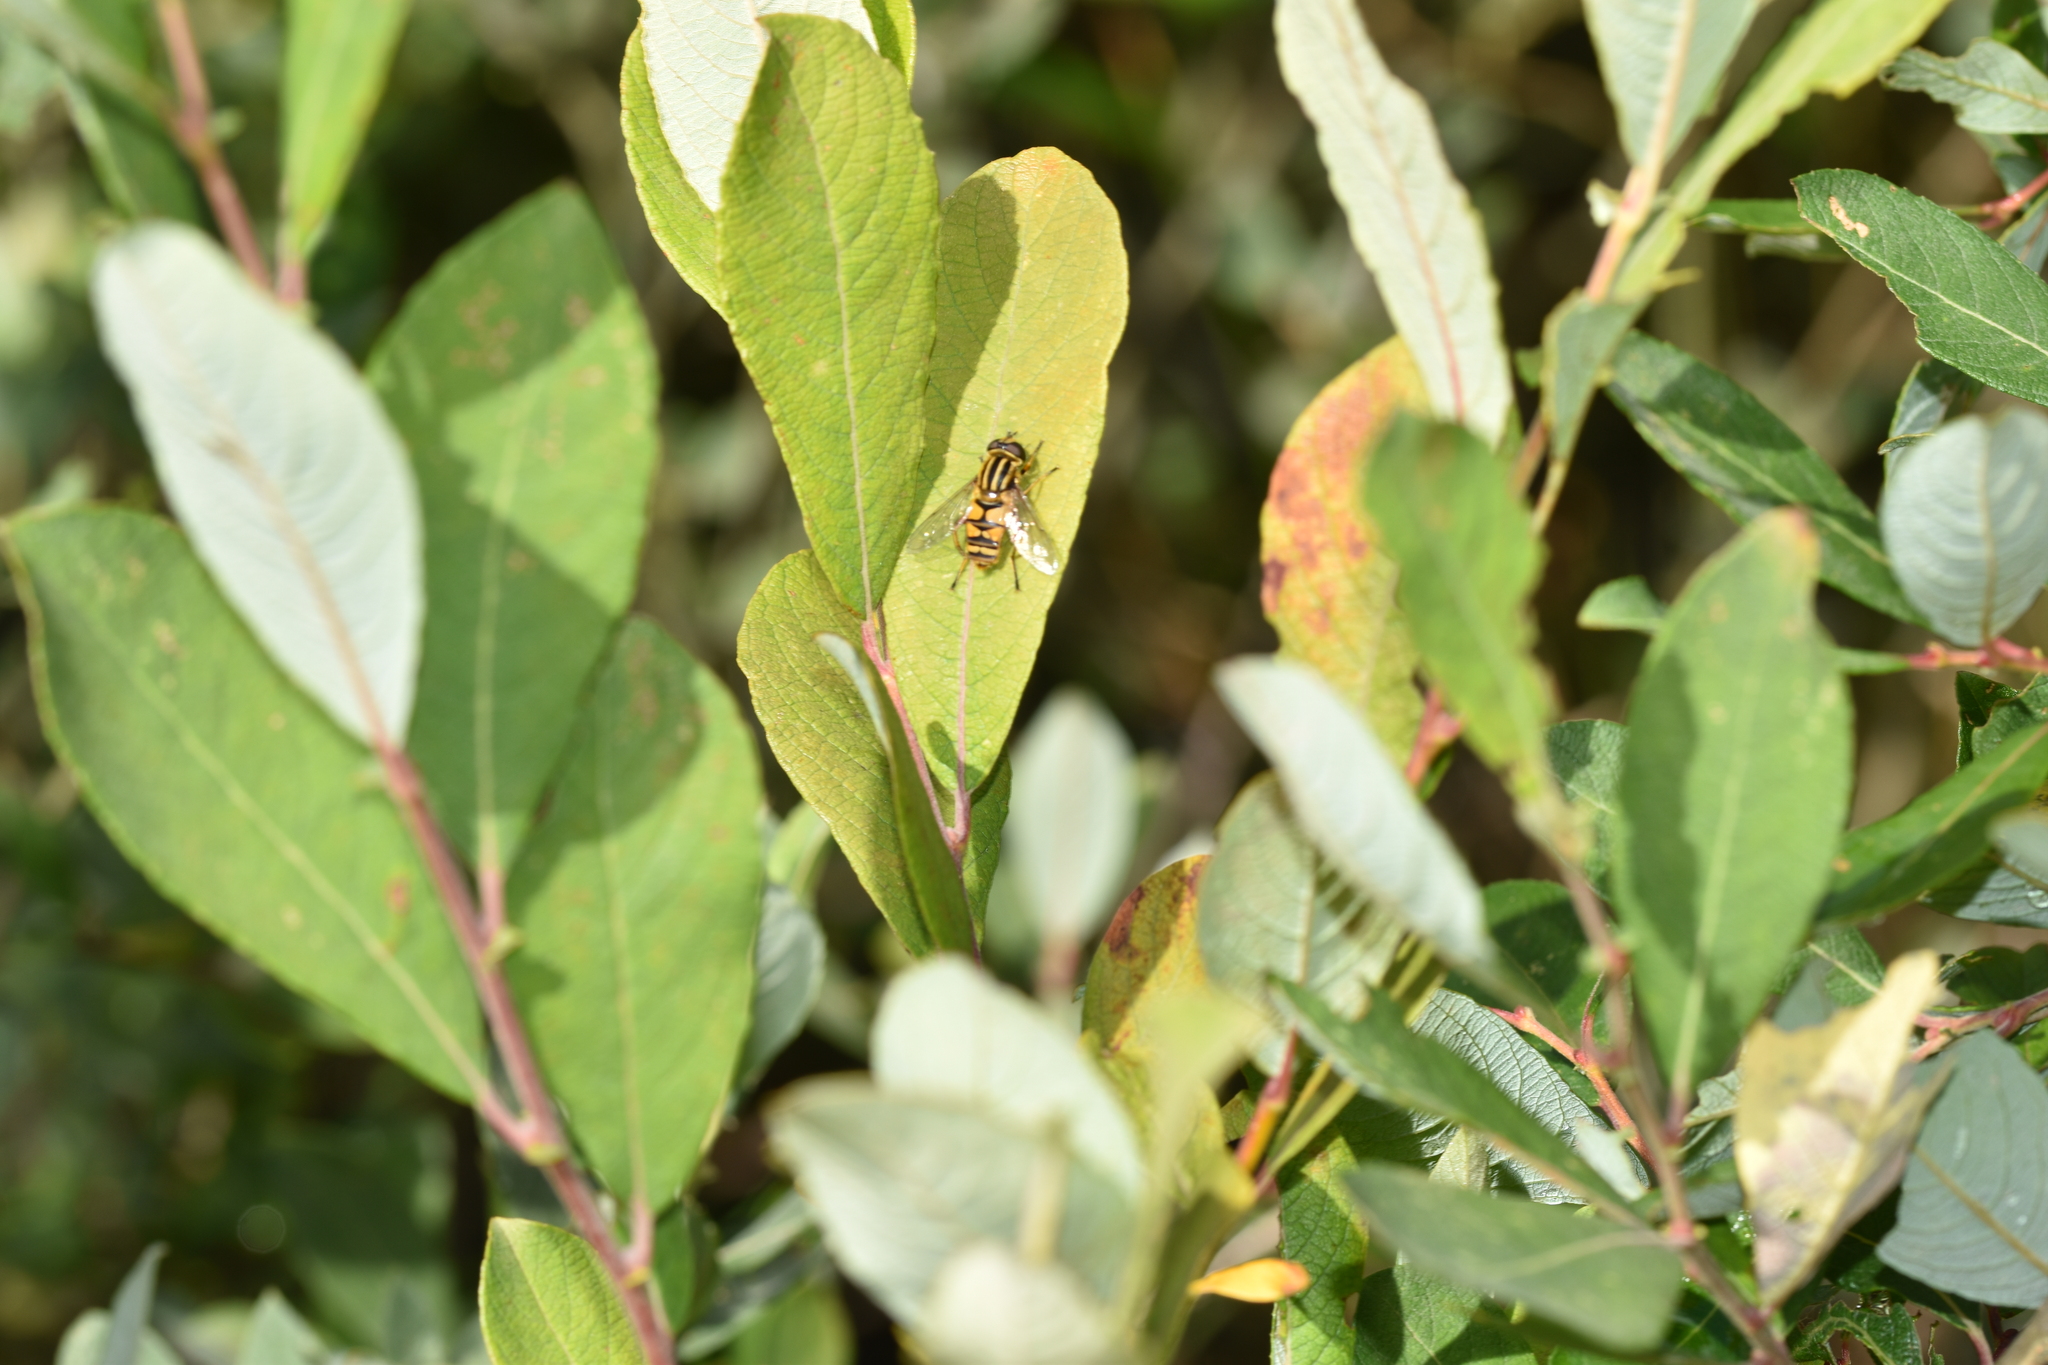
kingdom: Animalia
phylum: Arthropoda
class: Insecta
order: Diptera
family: Syrphidae
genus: Helophilus
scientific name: Helophilus pendulus
